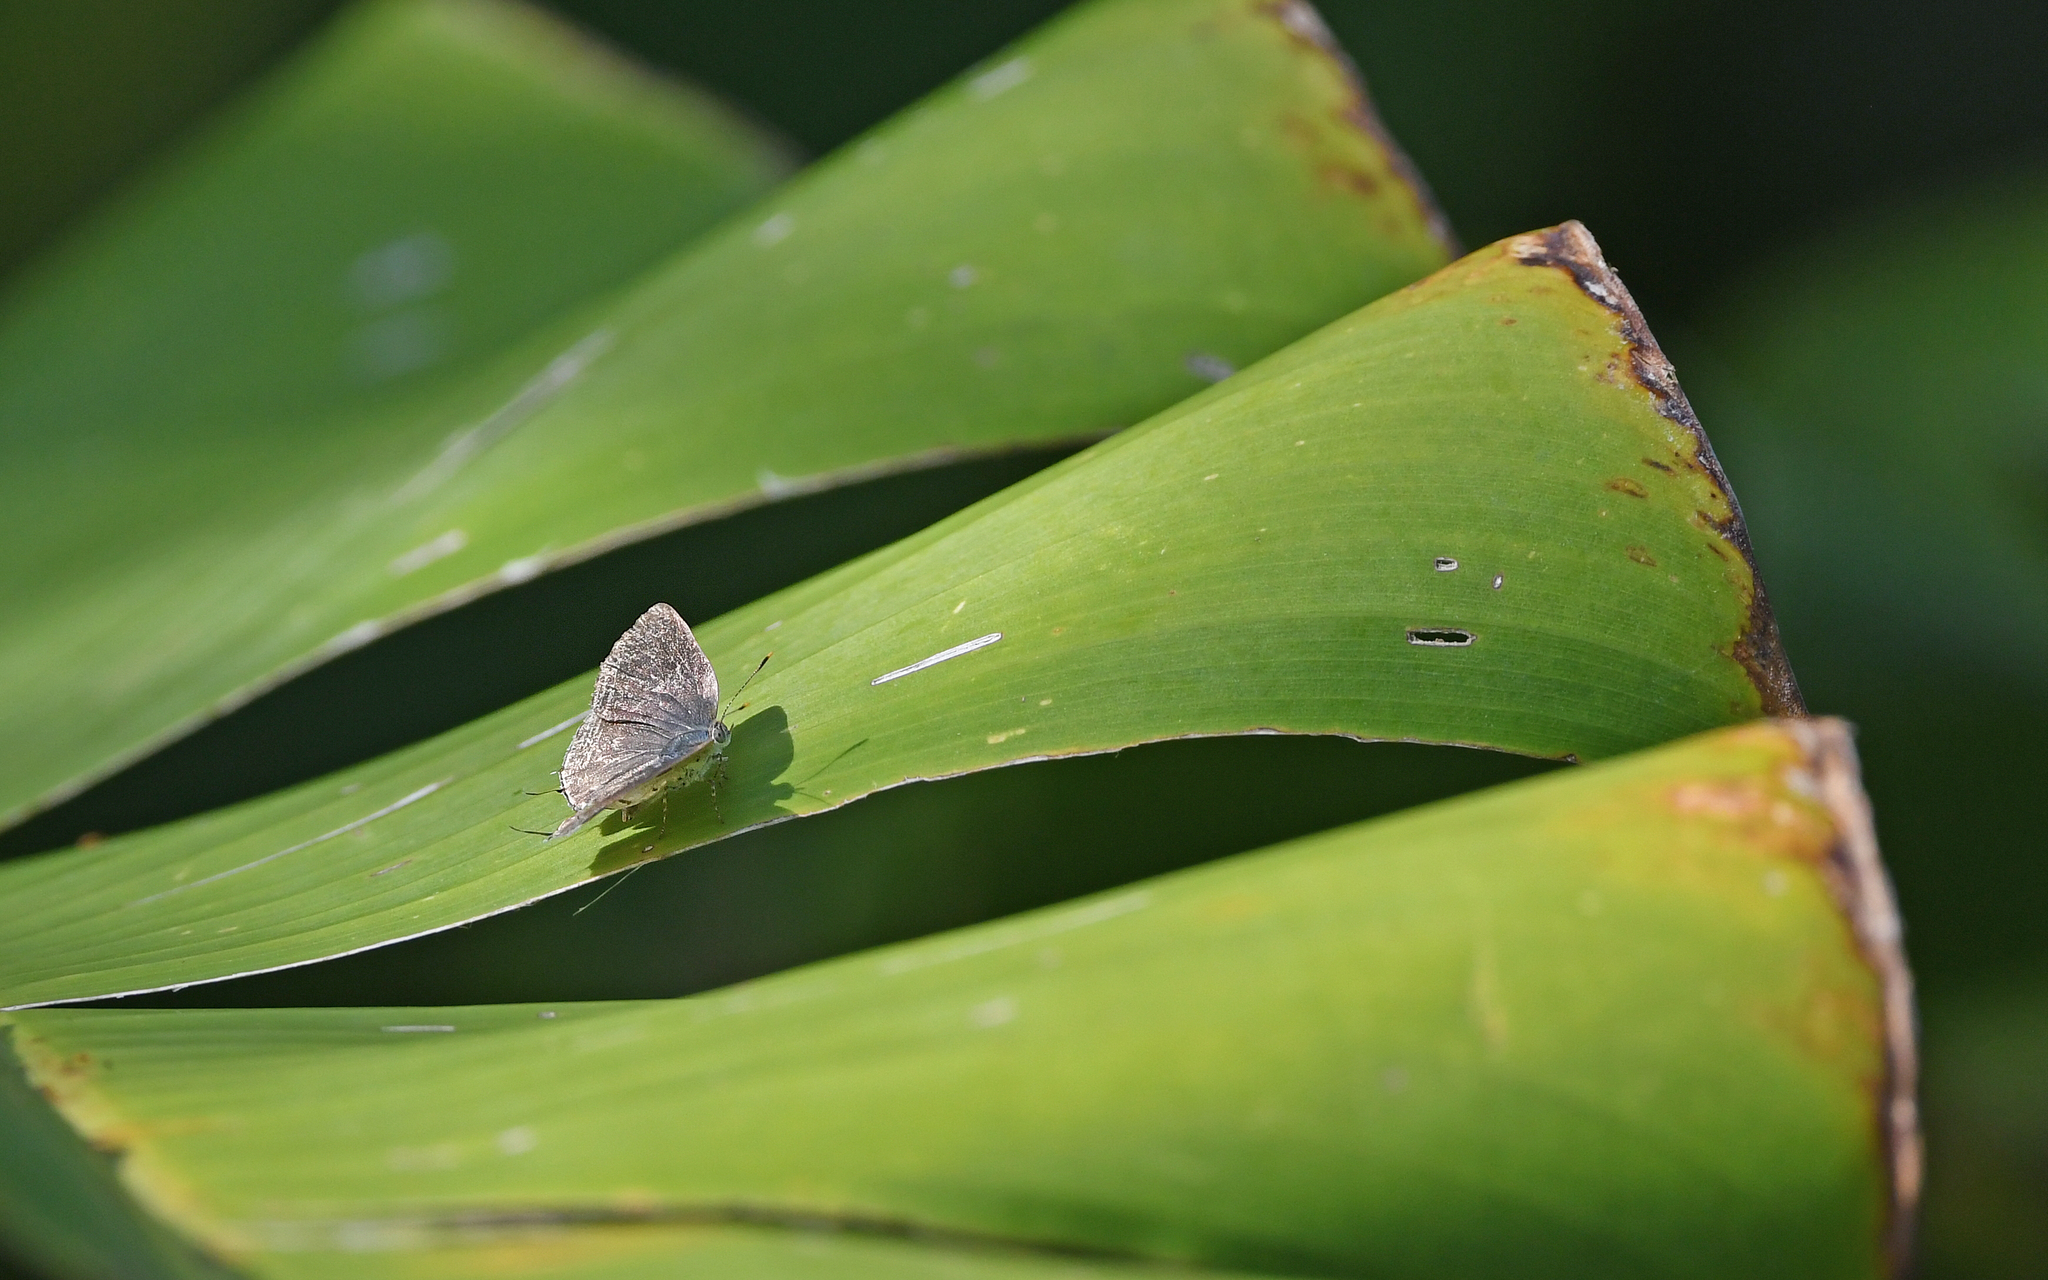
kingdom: Animalia
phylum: Arthropoda
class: Insecta
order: Lepidoptera
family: Lycaenidae
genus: Tmolus
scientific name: Tmolus echion
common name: Red-spotted hairstreak
